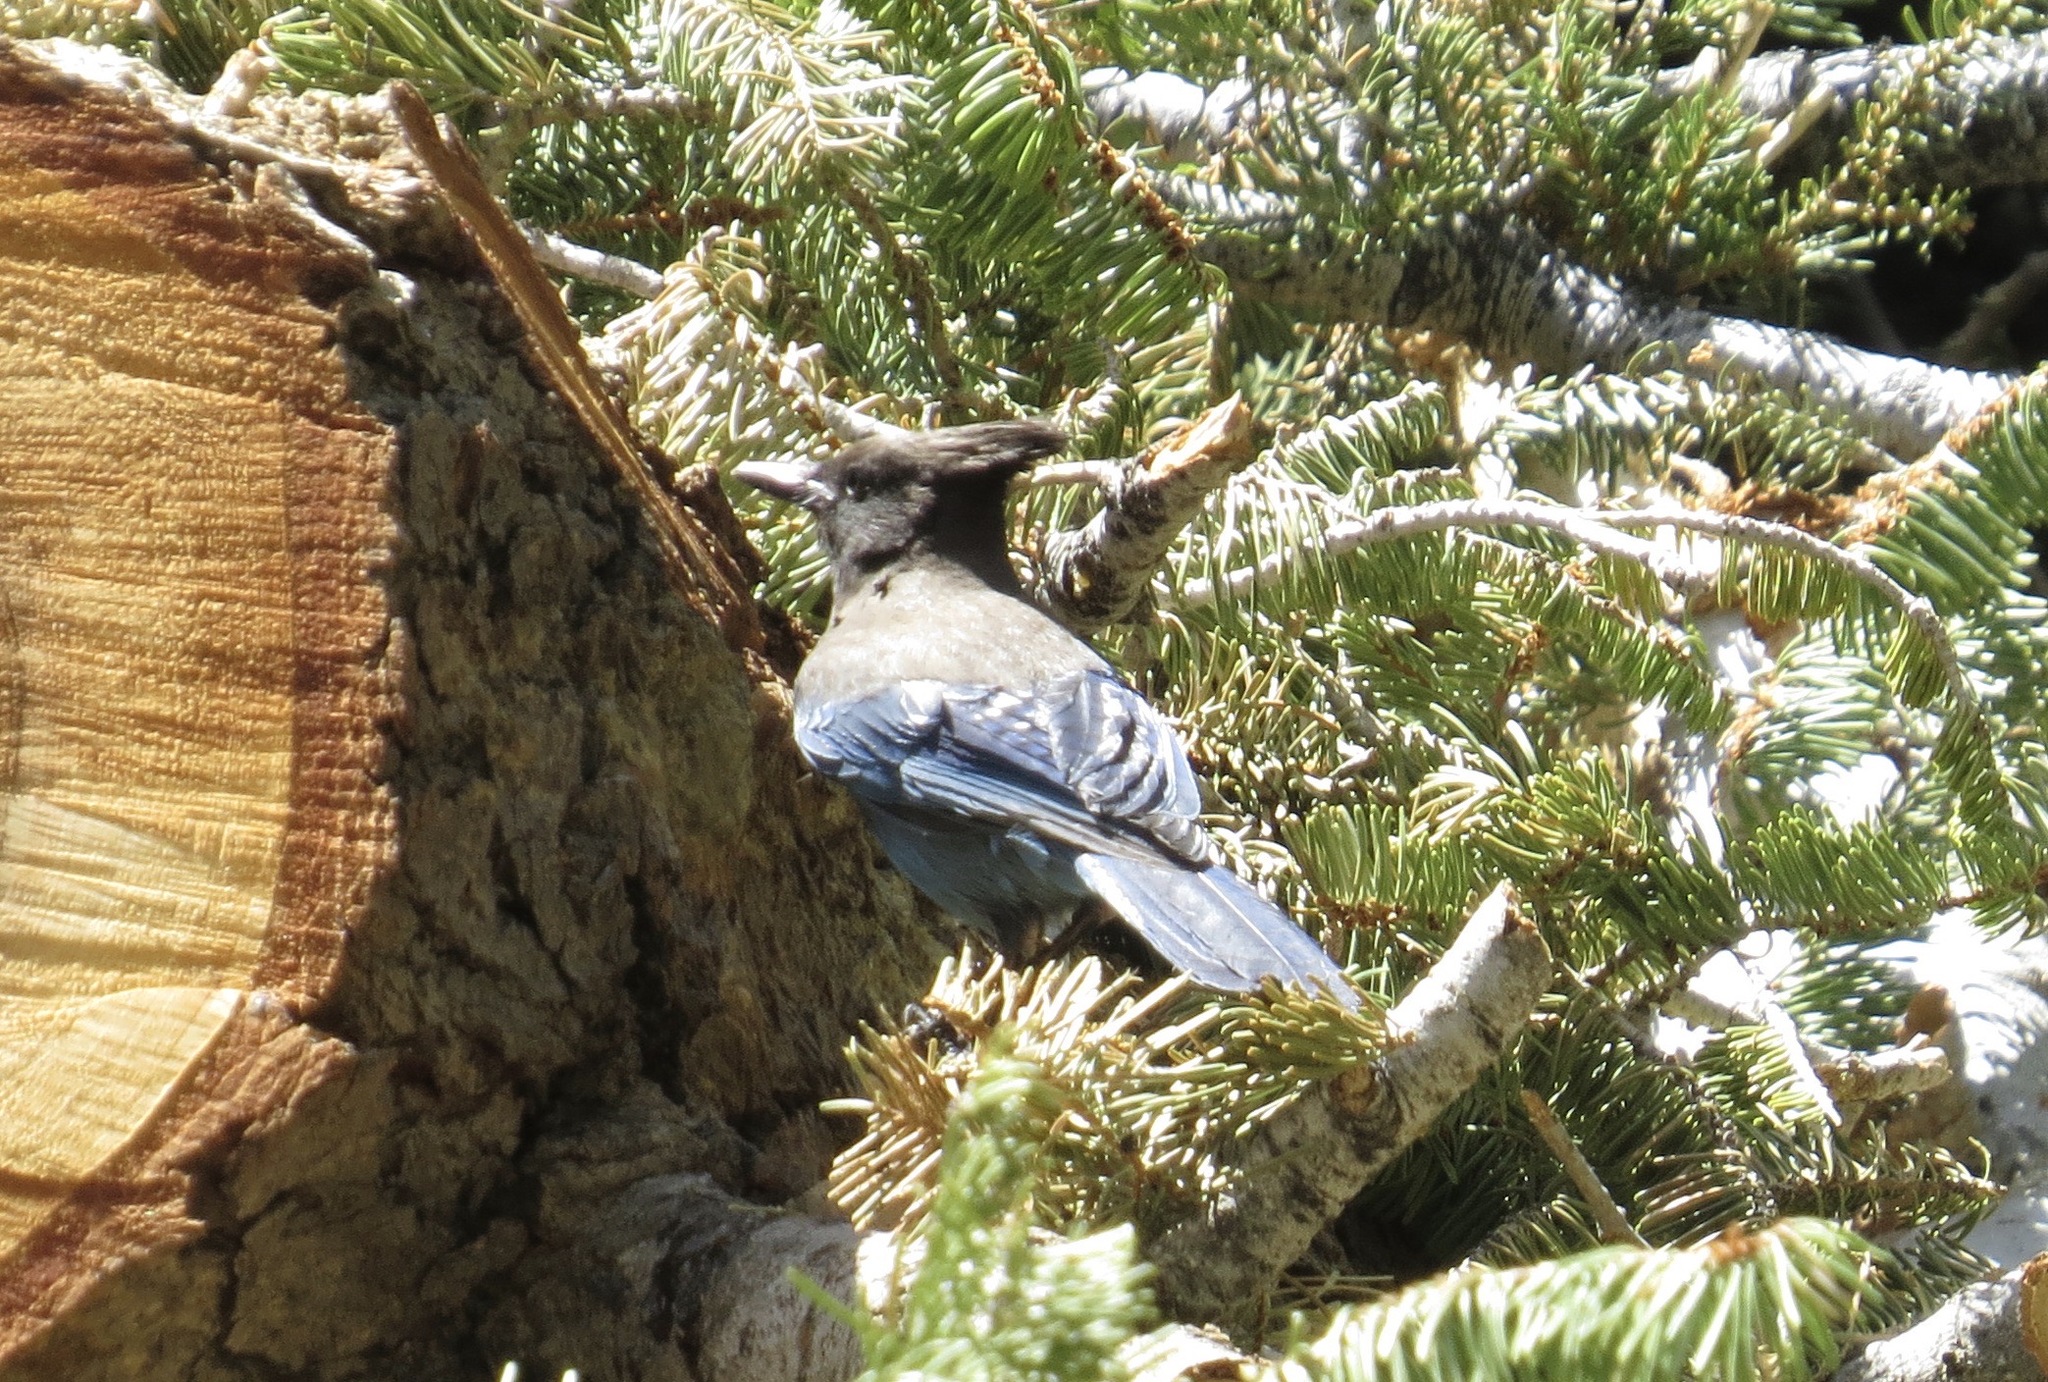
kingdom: Animalia
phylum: Chordata
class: Aves
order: Passeriformes
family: Corvidae
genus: Cyanocitta
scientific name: Cyanocitta stelleri
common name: Steller's jay
